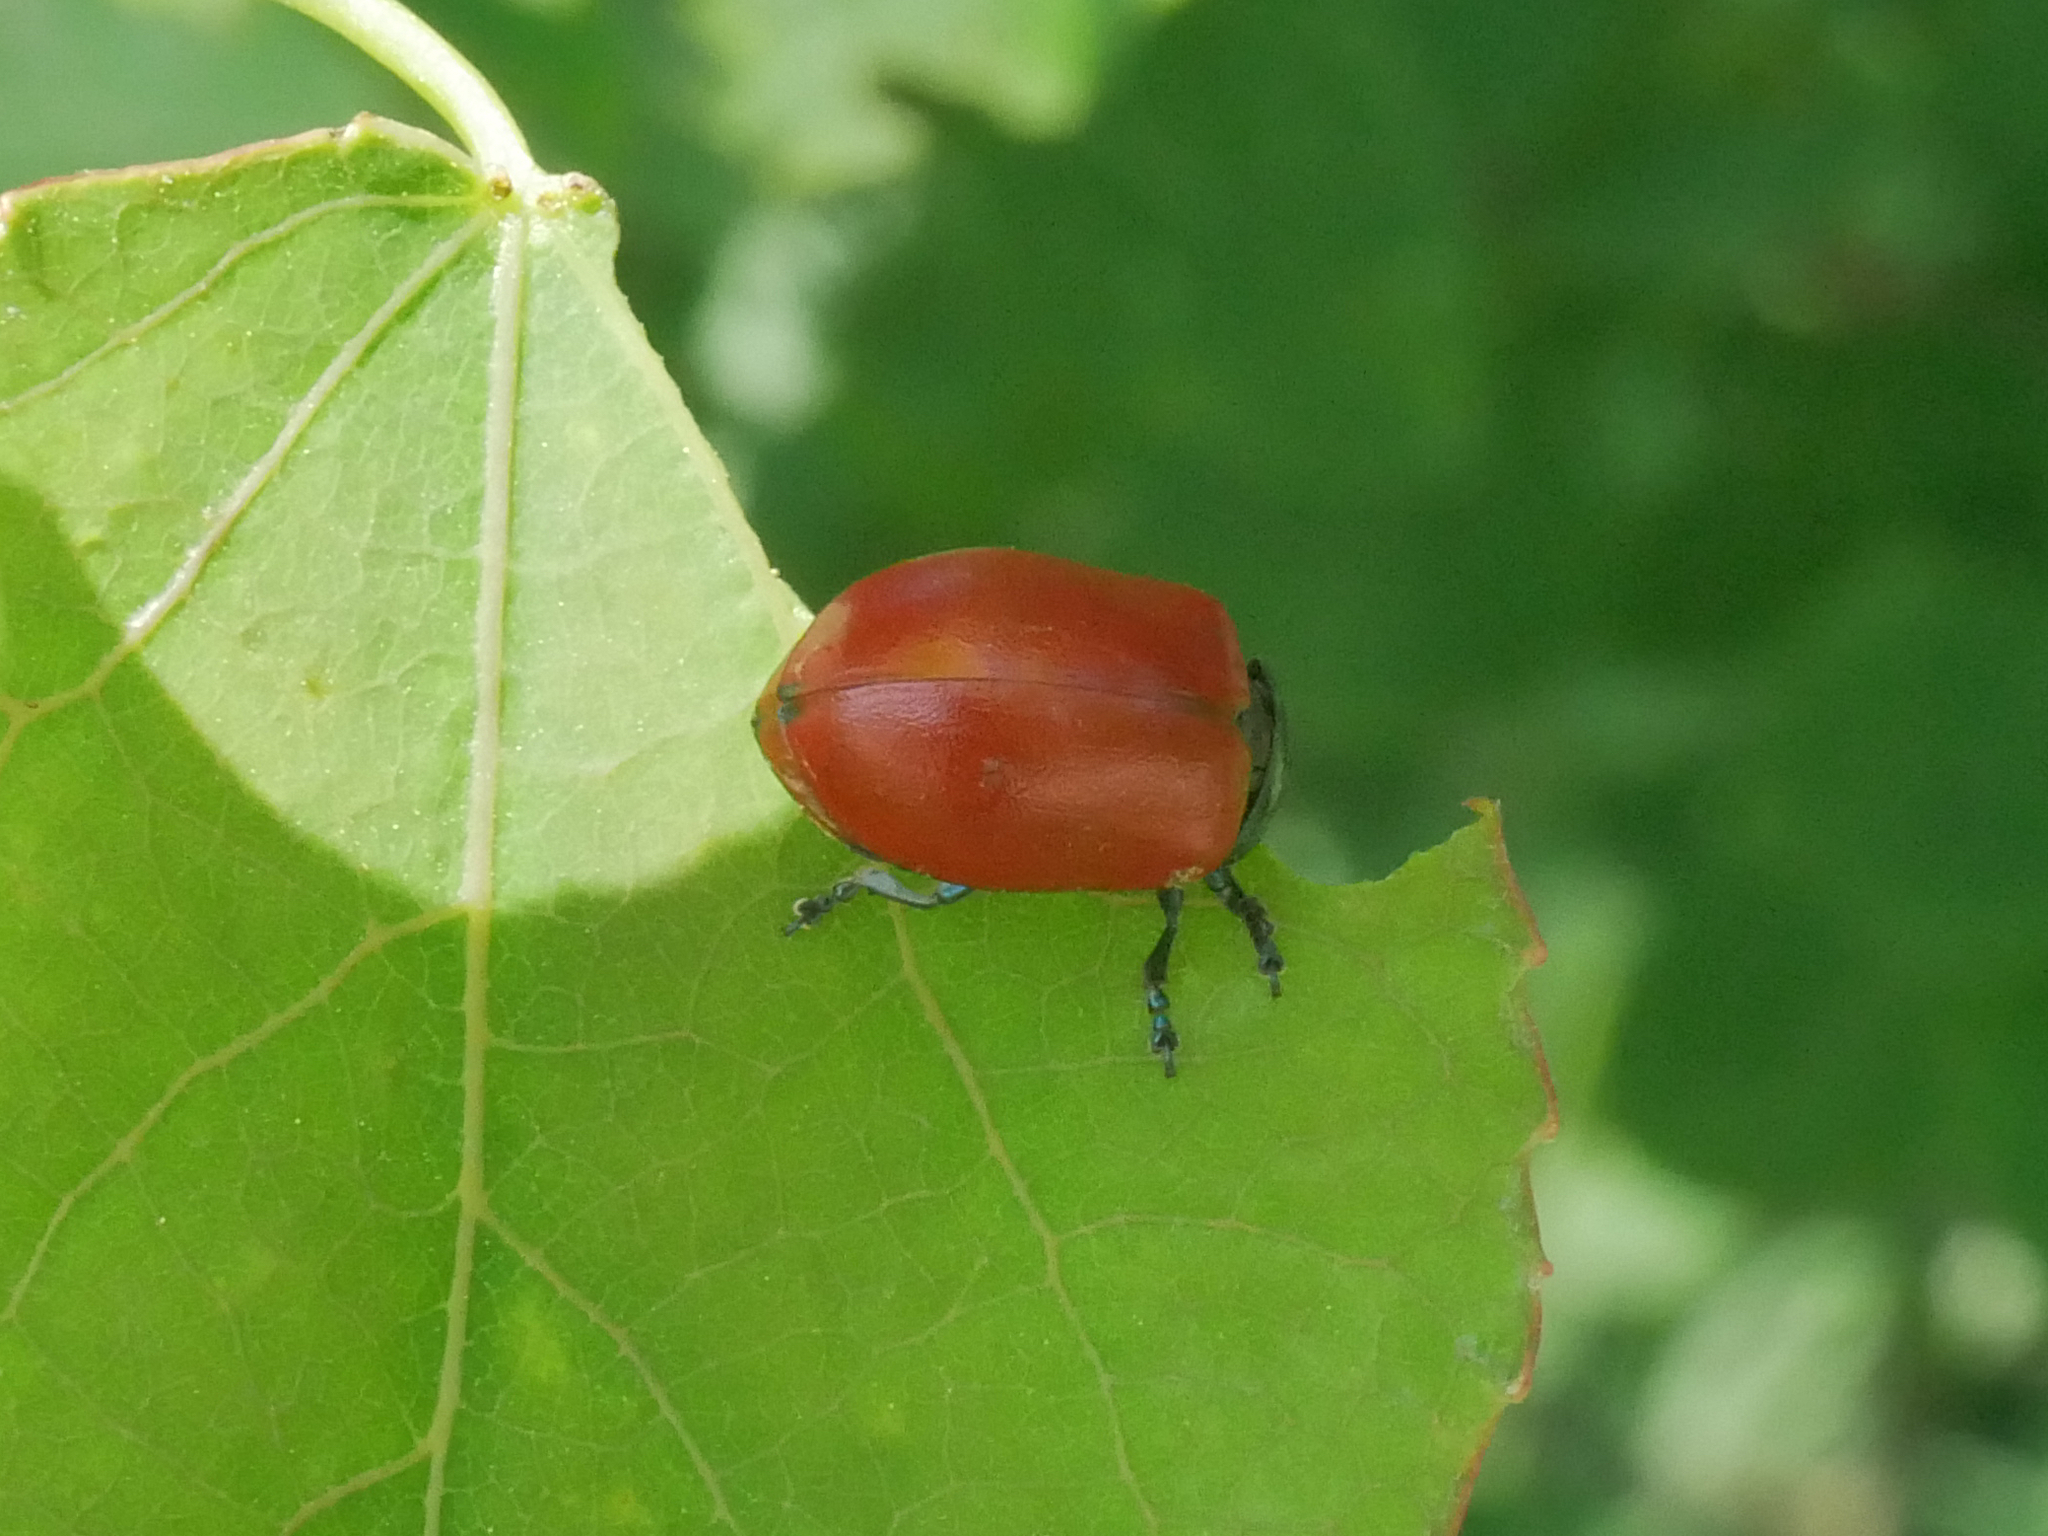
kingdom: Animalia
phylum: Arthropoda
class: Insecta
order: Coleoptera
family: Chrysomelidae
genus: Chrysomela
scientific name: Chrysomela populi
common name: Red poplar leaf beetle
